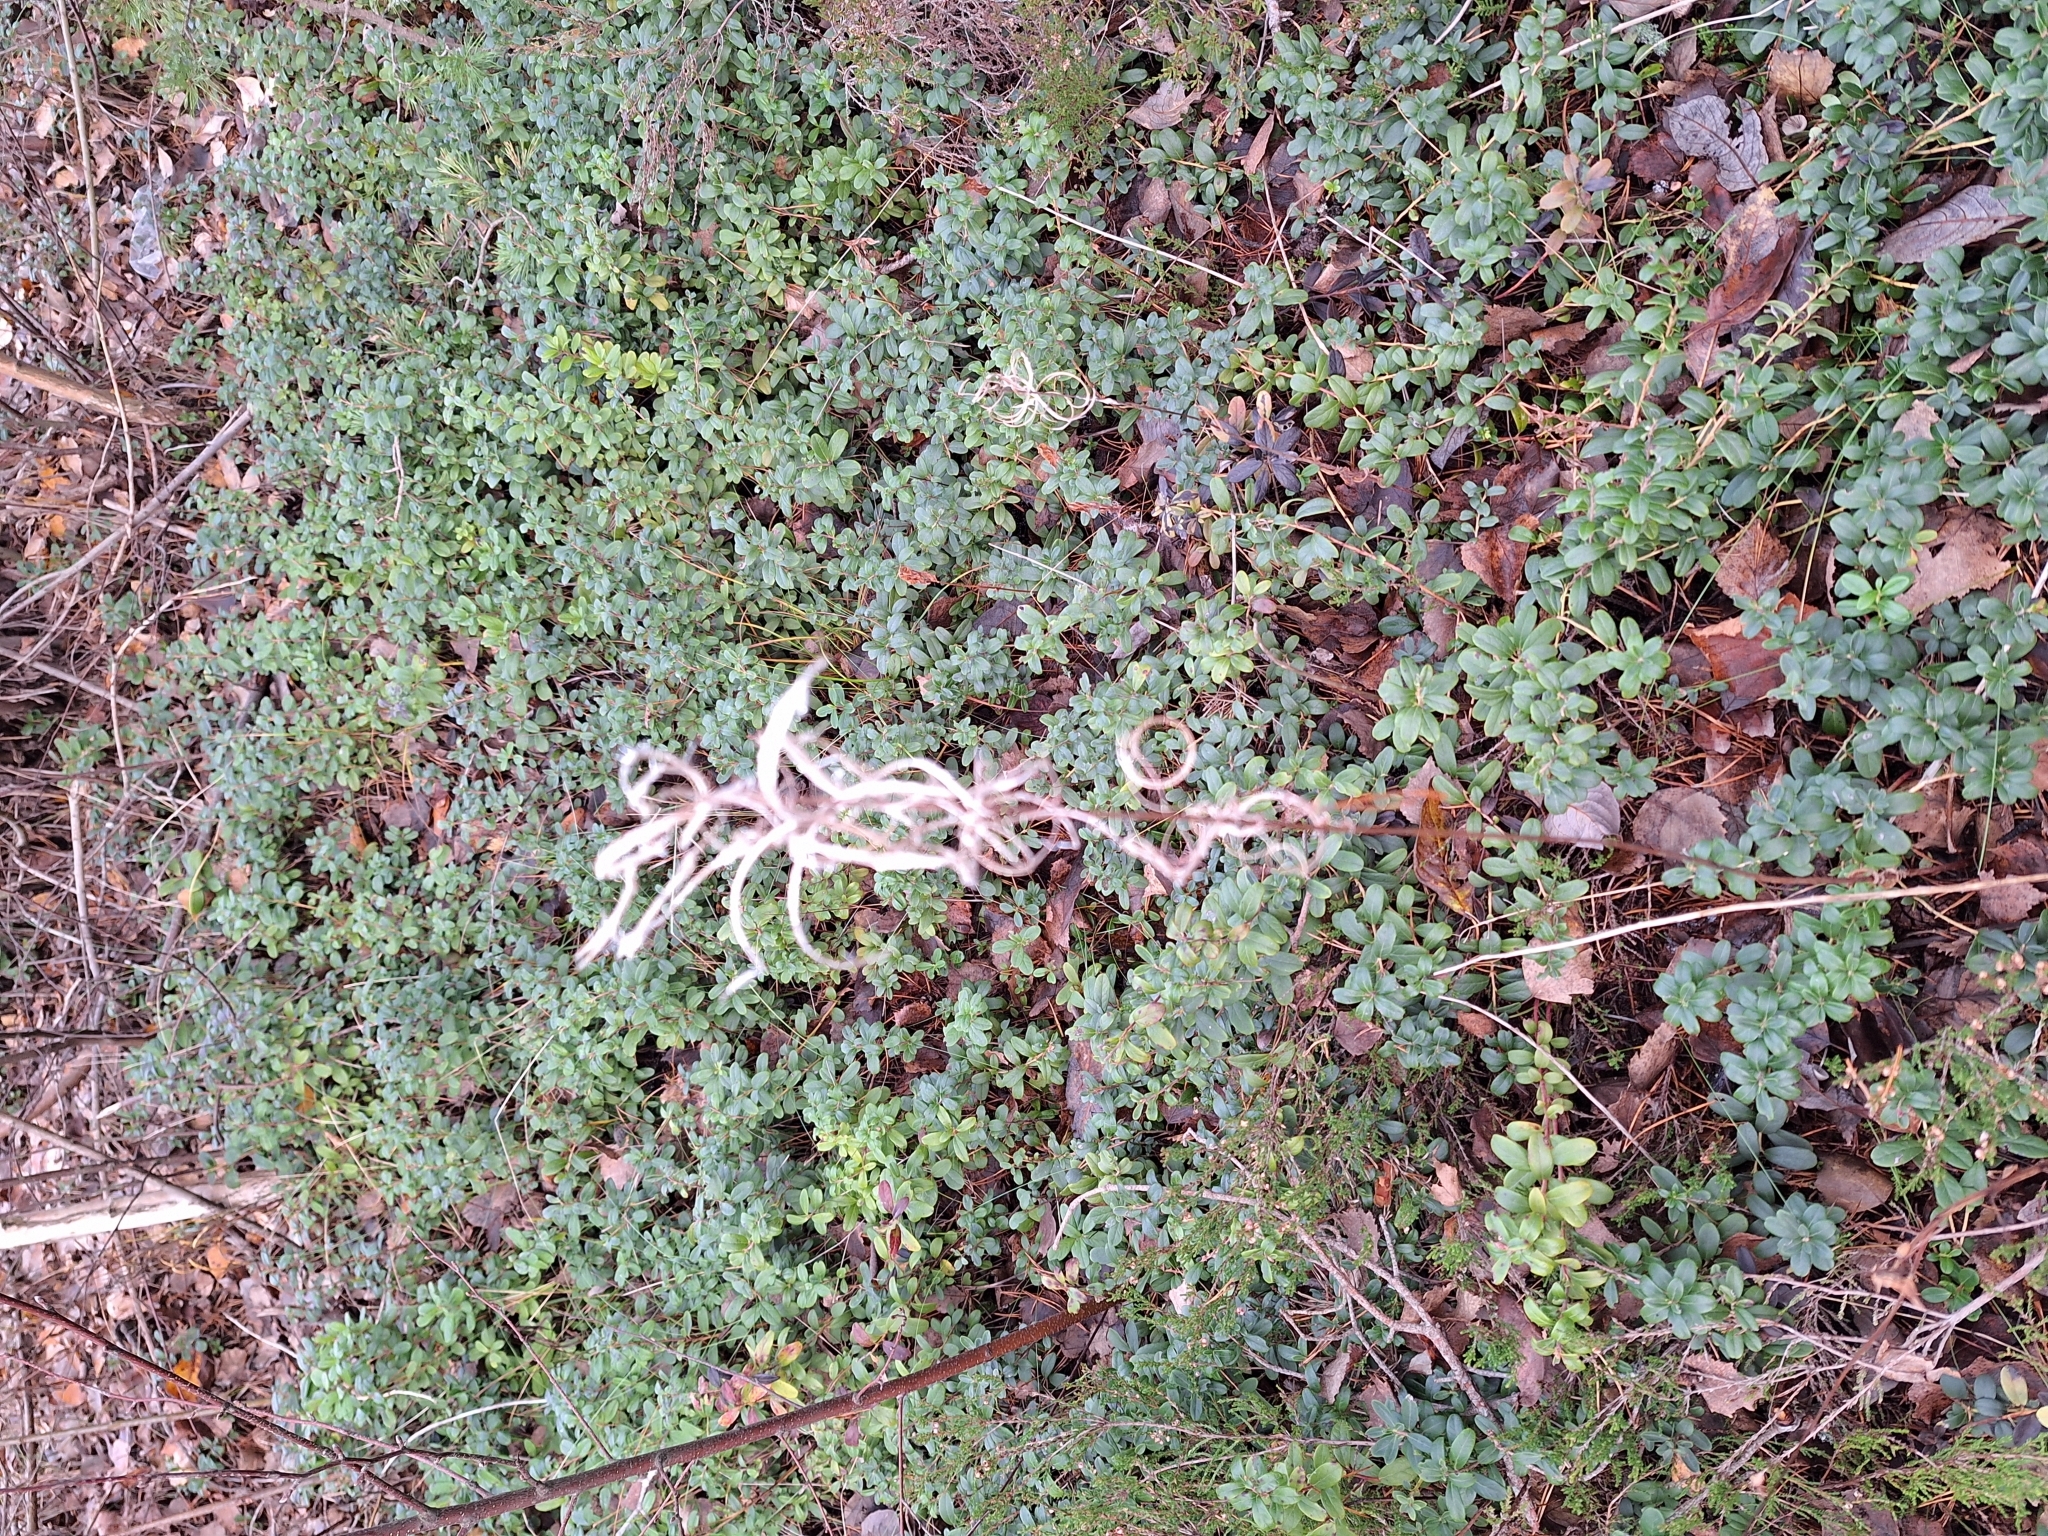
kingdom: Plantae
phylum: Tracheophyta
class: Magnoliopsida
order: Myrtales
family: Onagraceae
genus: Chamaenerion
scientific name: Chamaenerion angustifolium
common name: Fireweed
